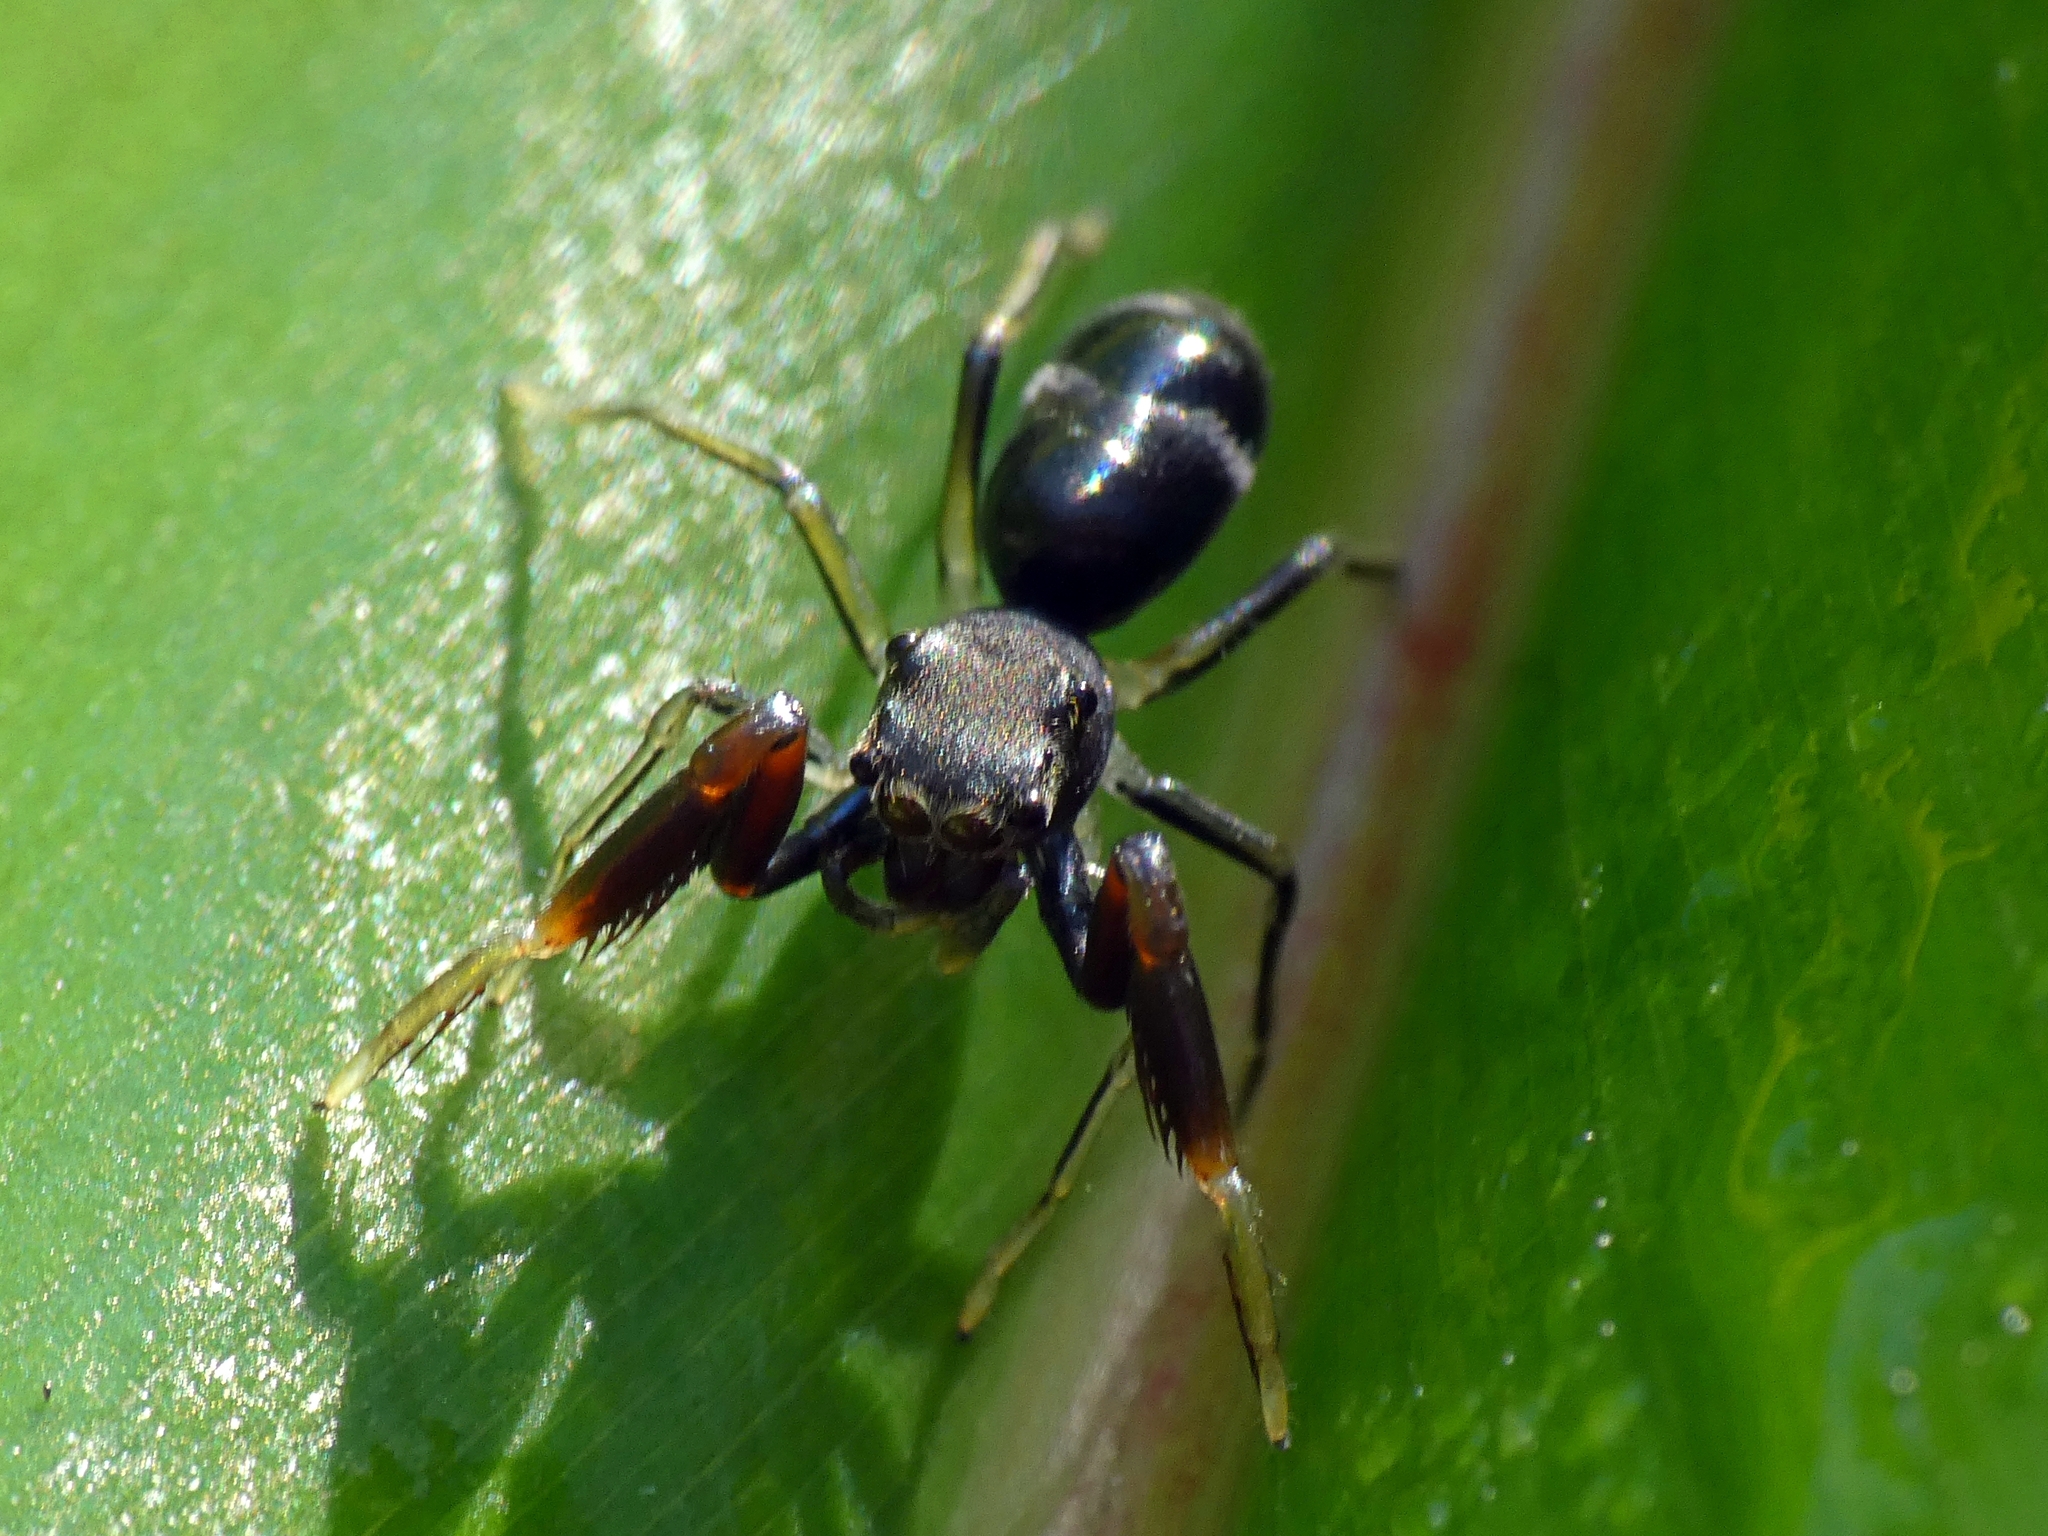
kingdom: Animalia
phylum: Arthropoda
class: Arachnida
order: Araneae
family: Salticidae
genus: Ohilimia
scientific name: Ohilimia scutellata
